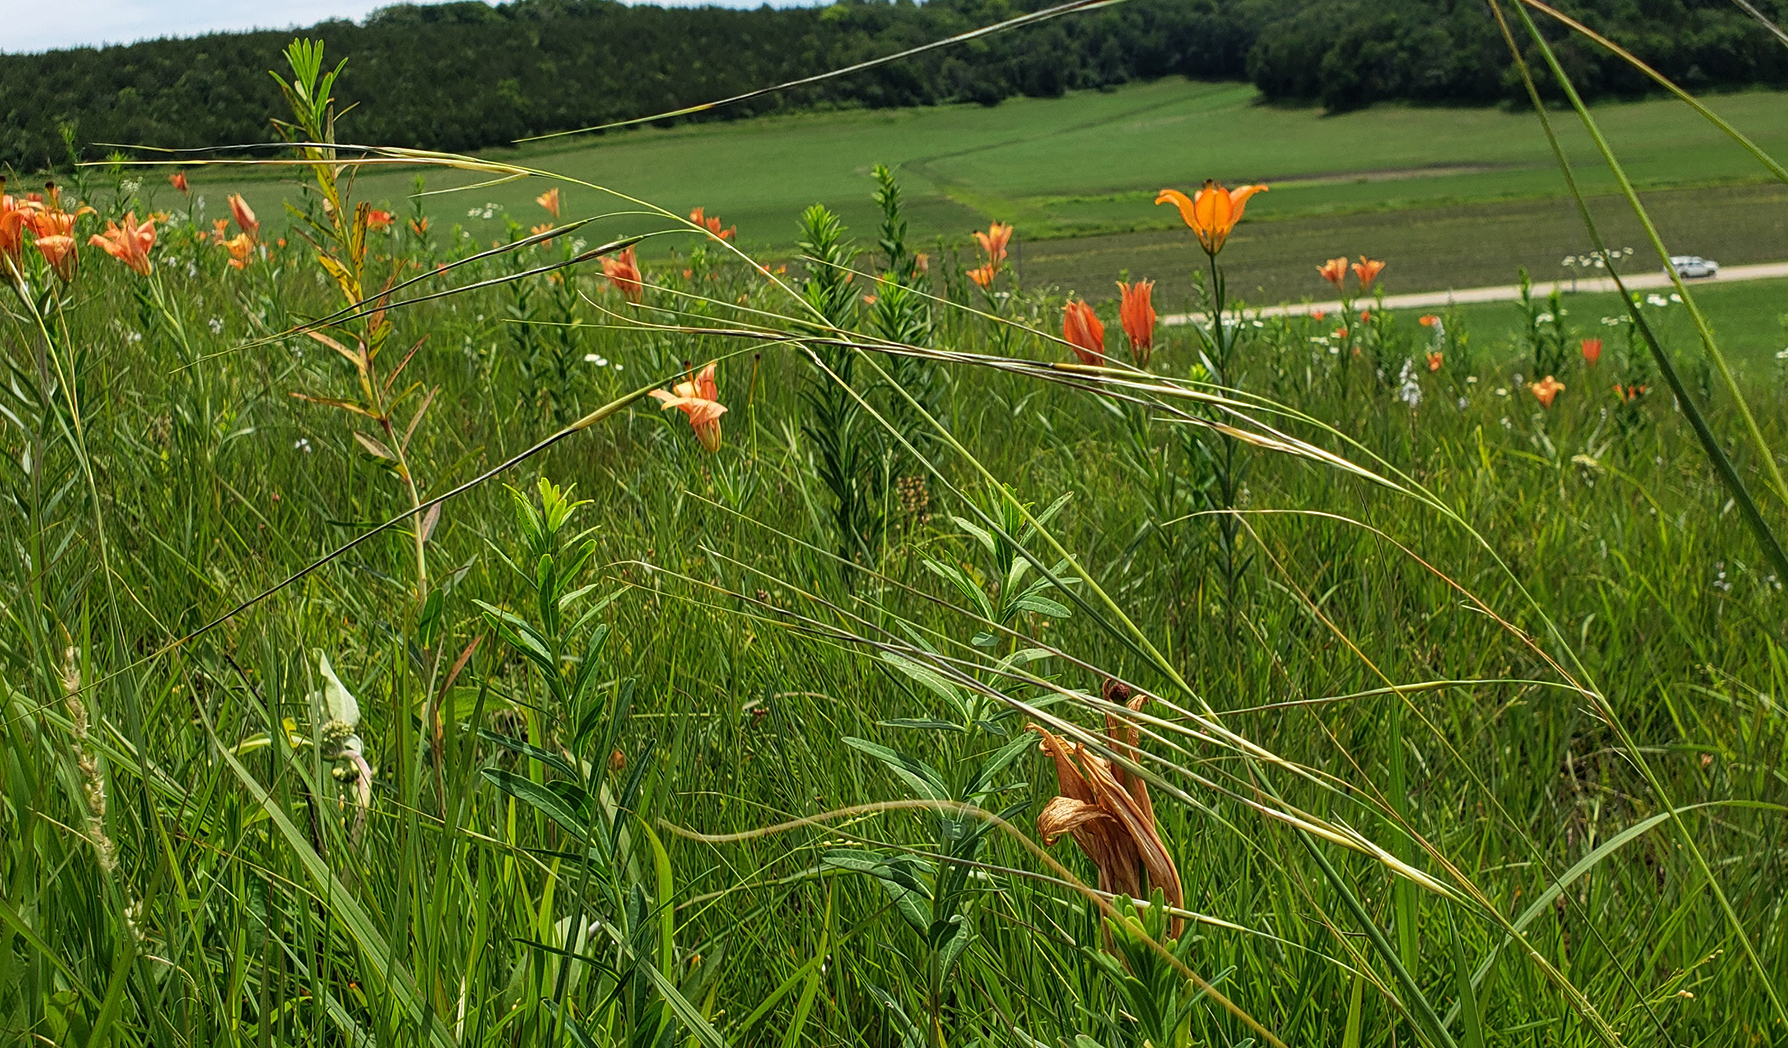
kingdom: Plantae
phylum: Tracheophyta
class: Liliopsida
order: Poales
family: Poaceae
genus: Hesperostipa
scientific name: Hesperostipa spartea
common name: Porcupine grass
